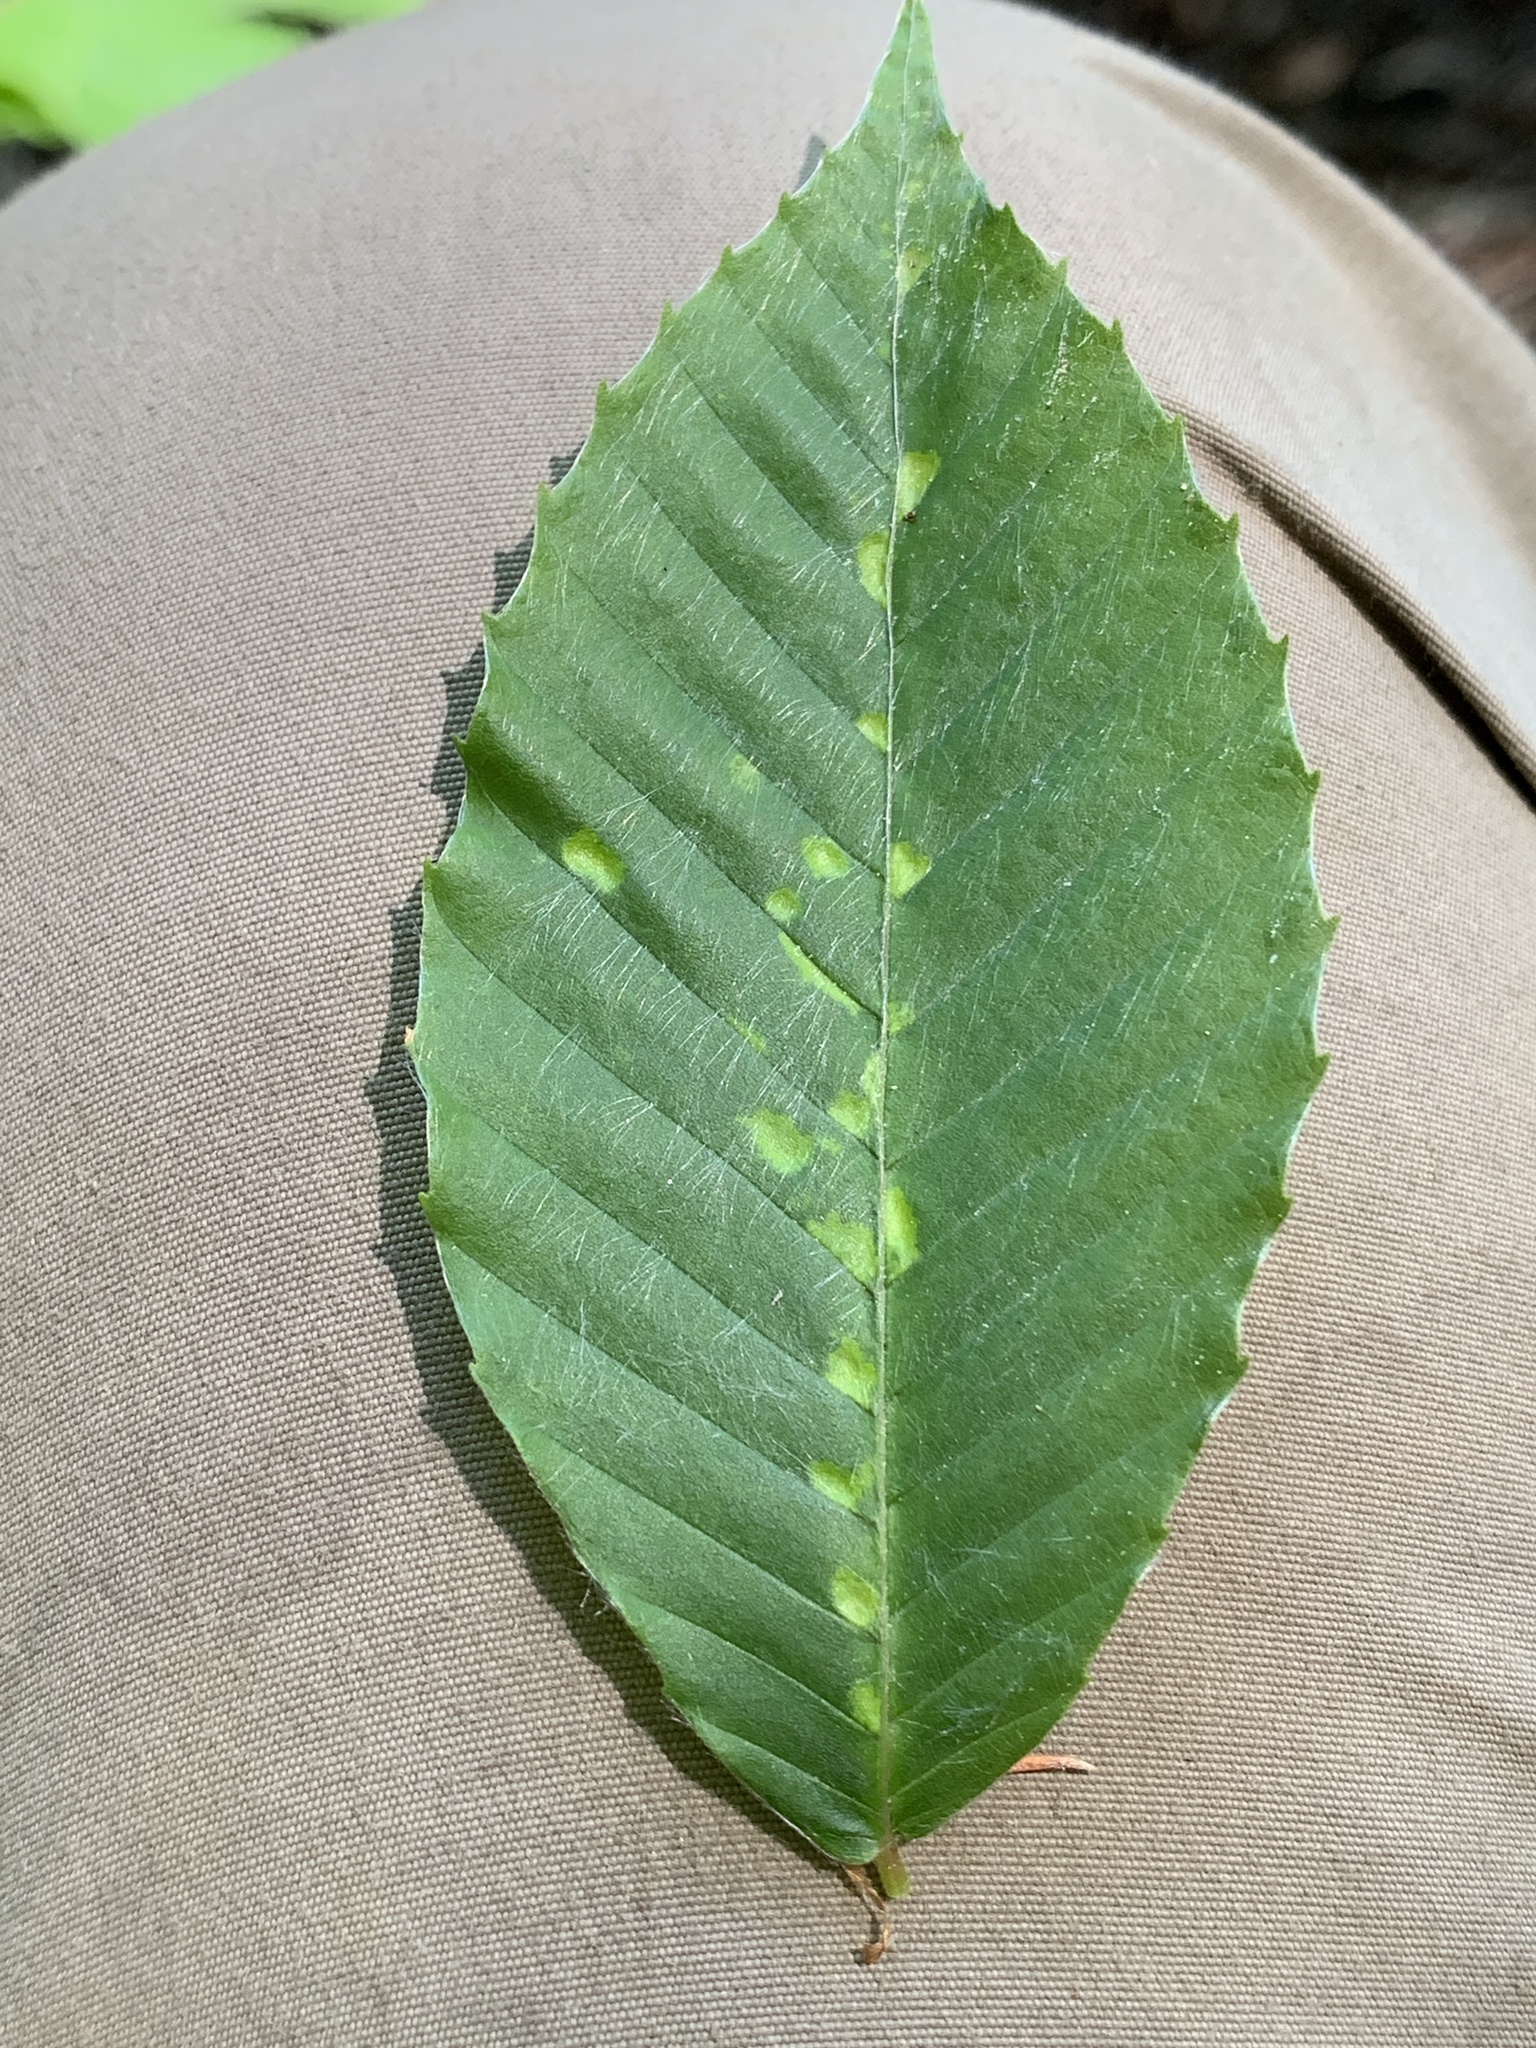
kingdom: Animalia
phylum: Arthropoda
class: Arachnida
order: Trombidiformes
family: Eriophyidae
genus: Acalitus
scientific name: Acalitus
